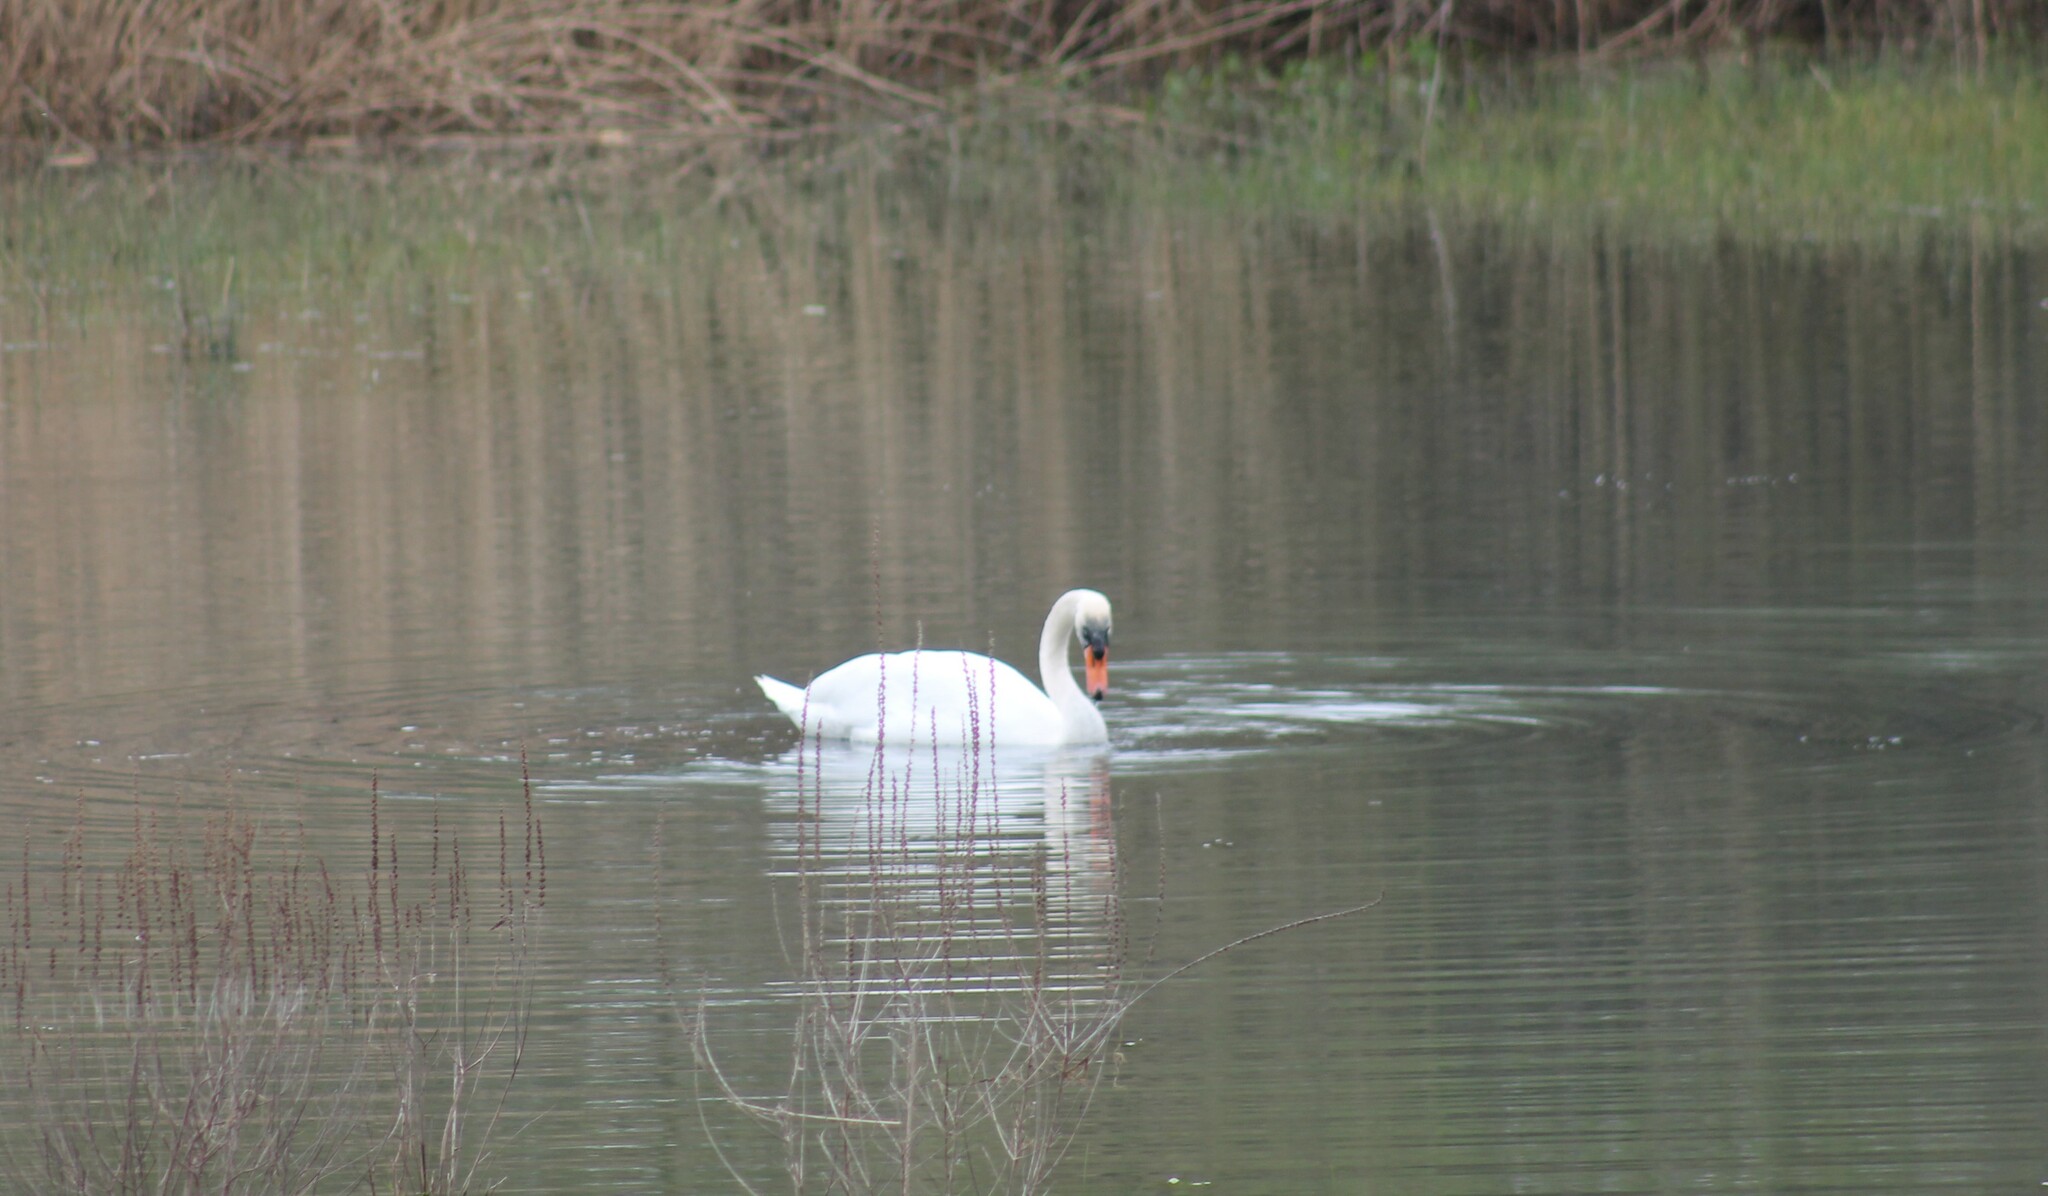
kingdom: Animalia
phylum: Chordata
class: Aves
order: Anseriformes
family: Anatidae
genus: Cygnus
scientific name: Cygnus olor
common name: Mute swan
